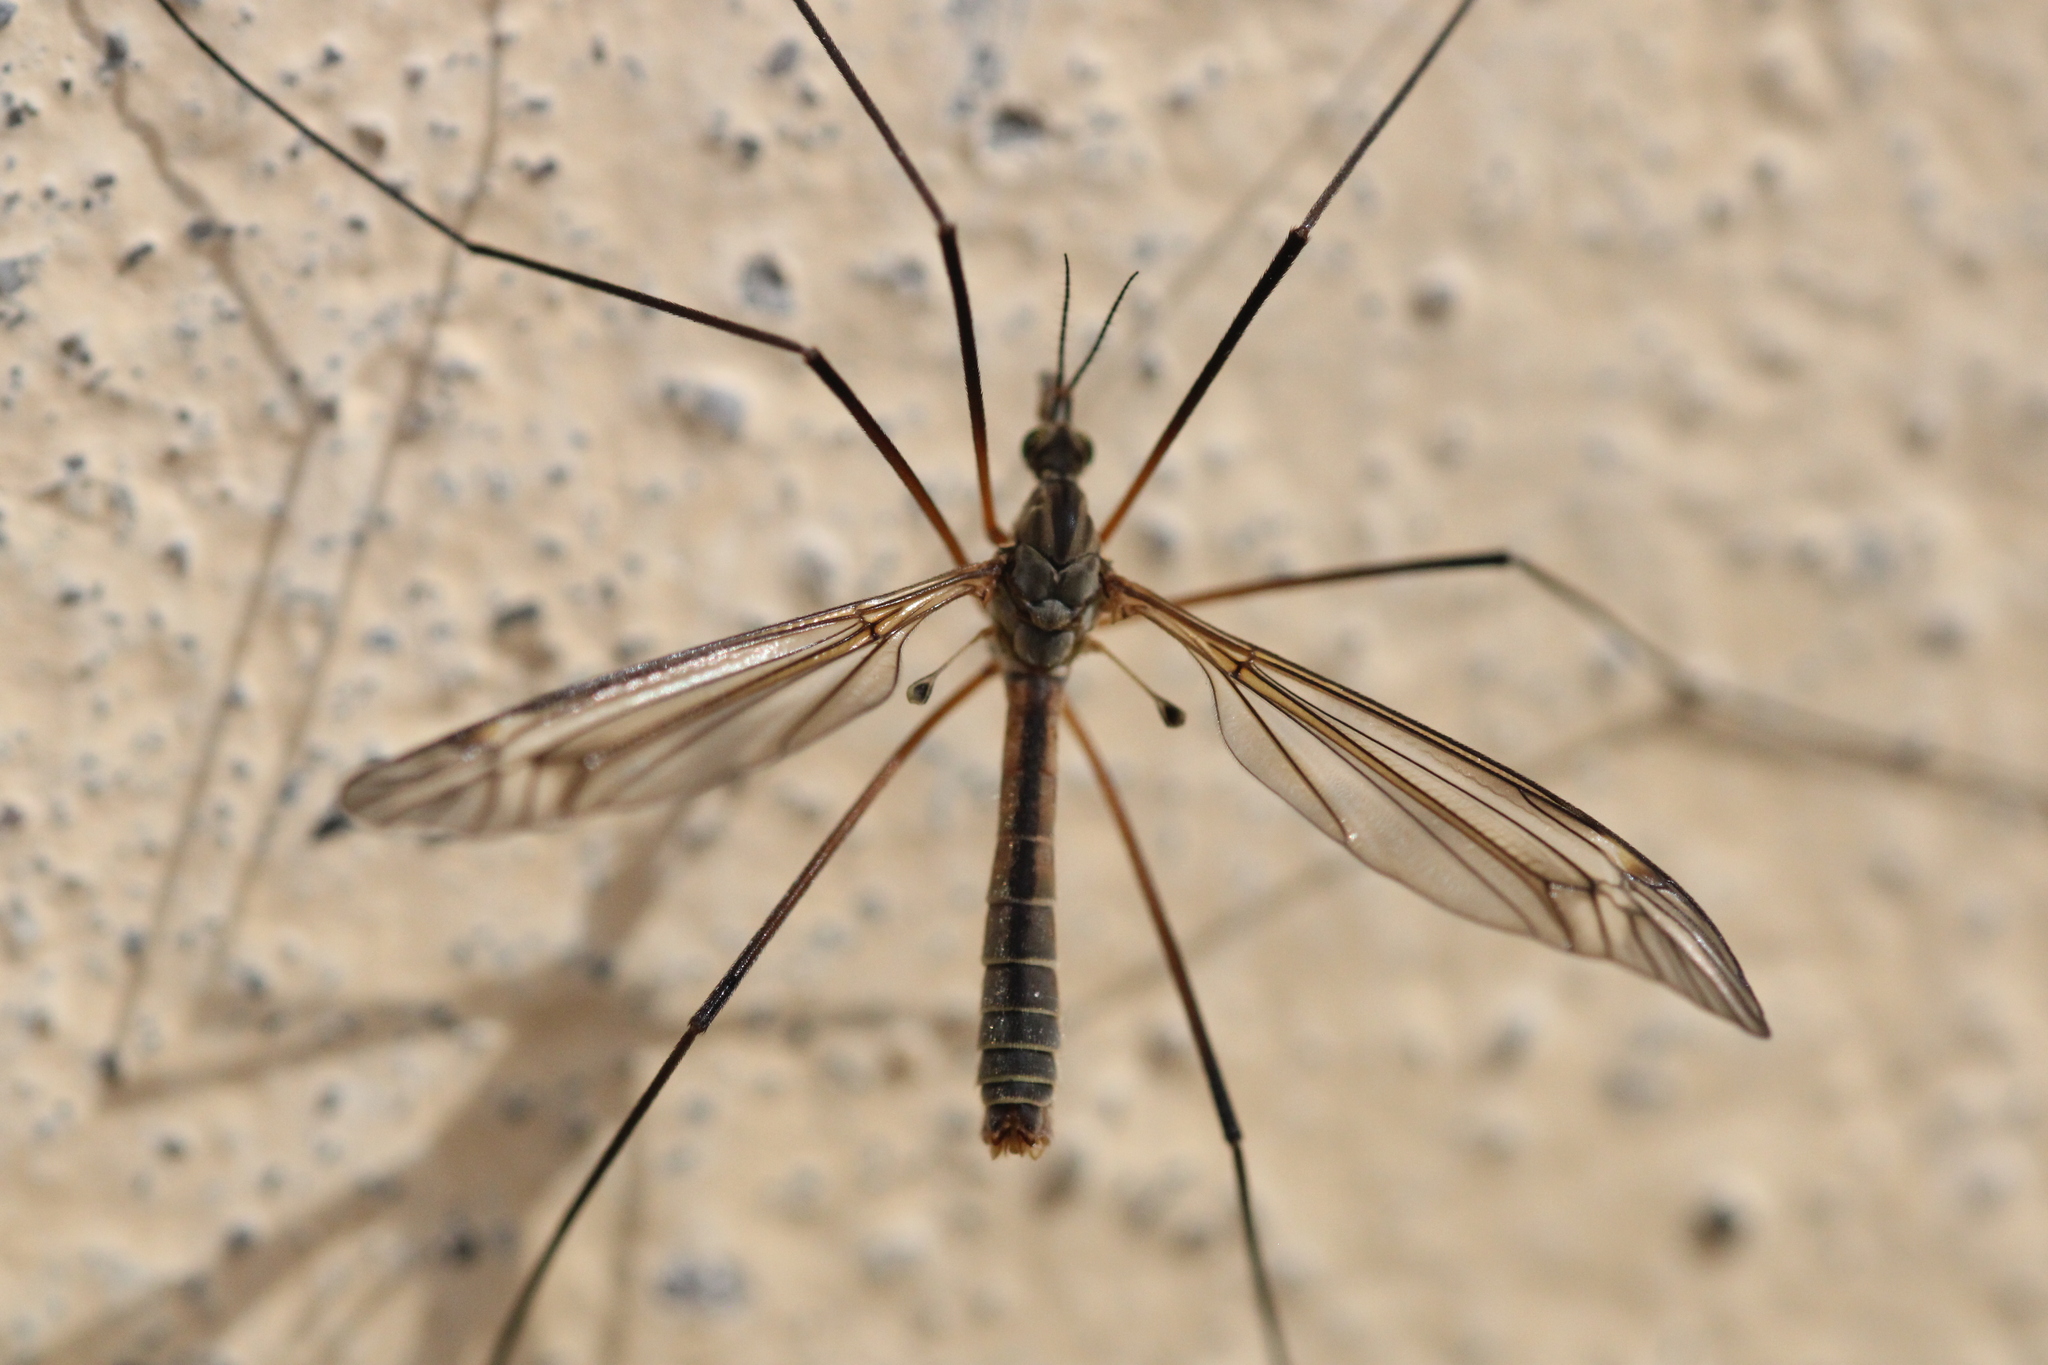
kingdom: Animalia
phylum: Arthropoda
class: Insecta
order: Diptera
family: Tipulidae
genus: Tipula
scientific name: Tipula vernalis
